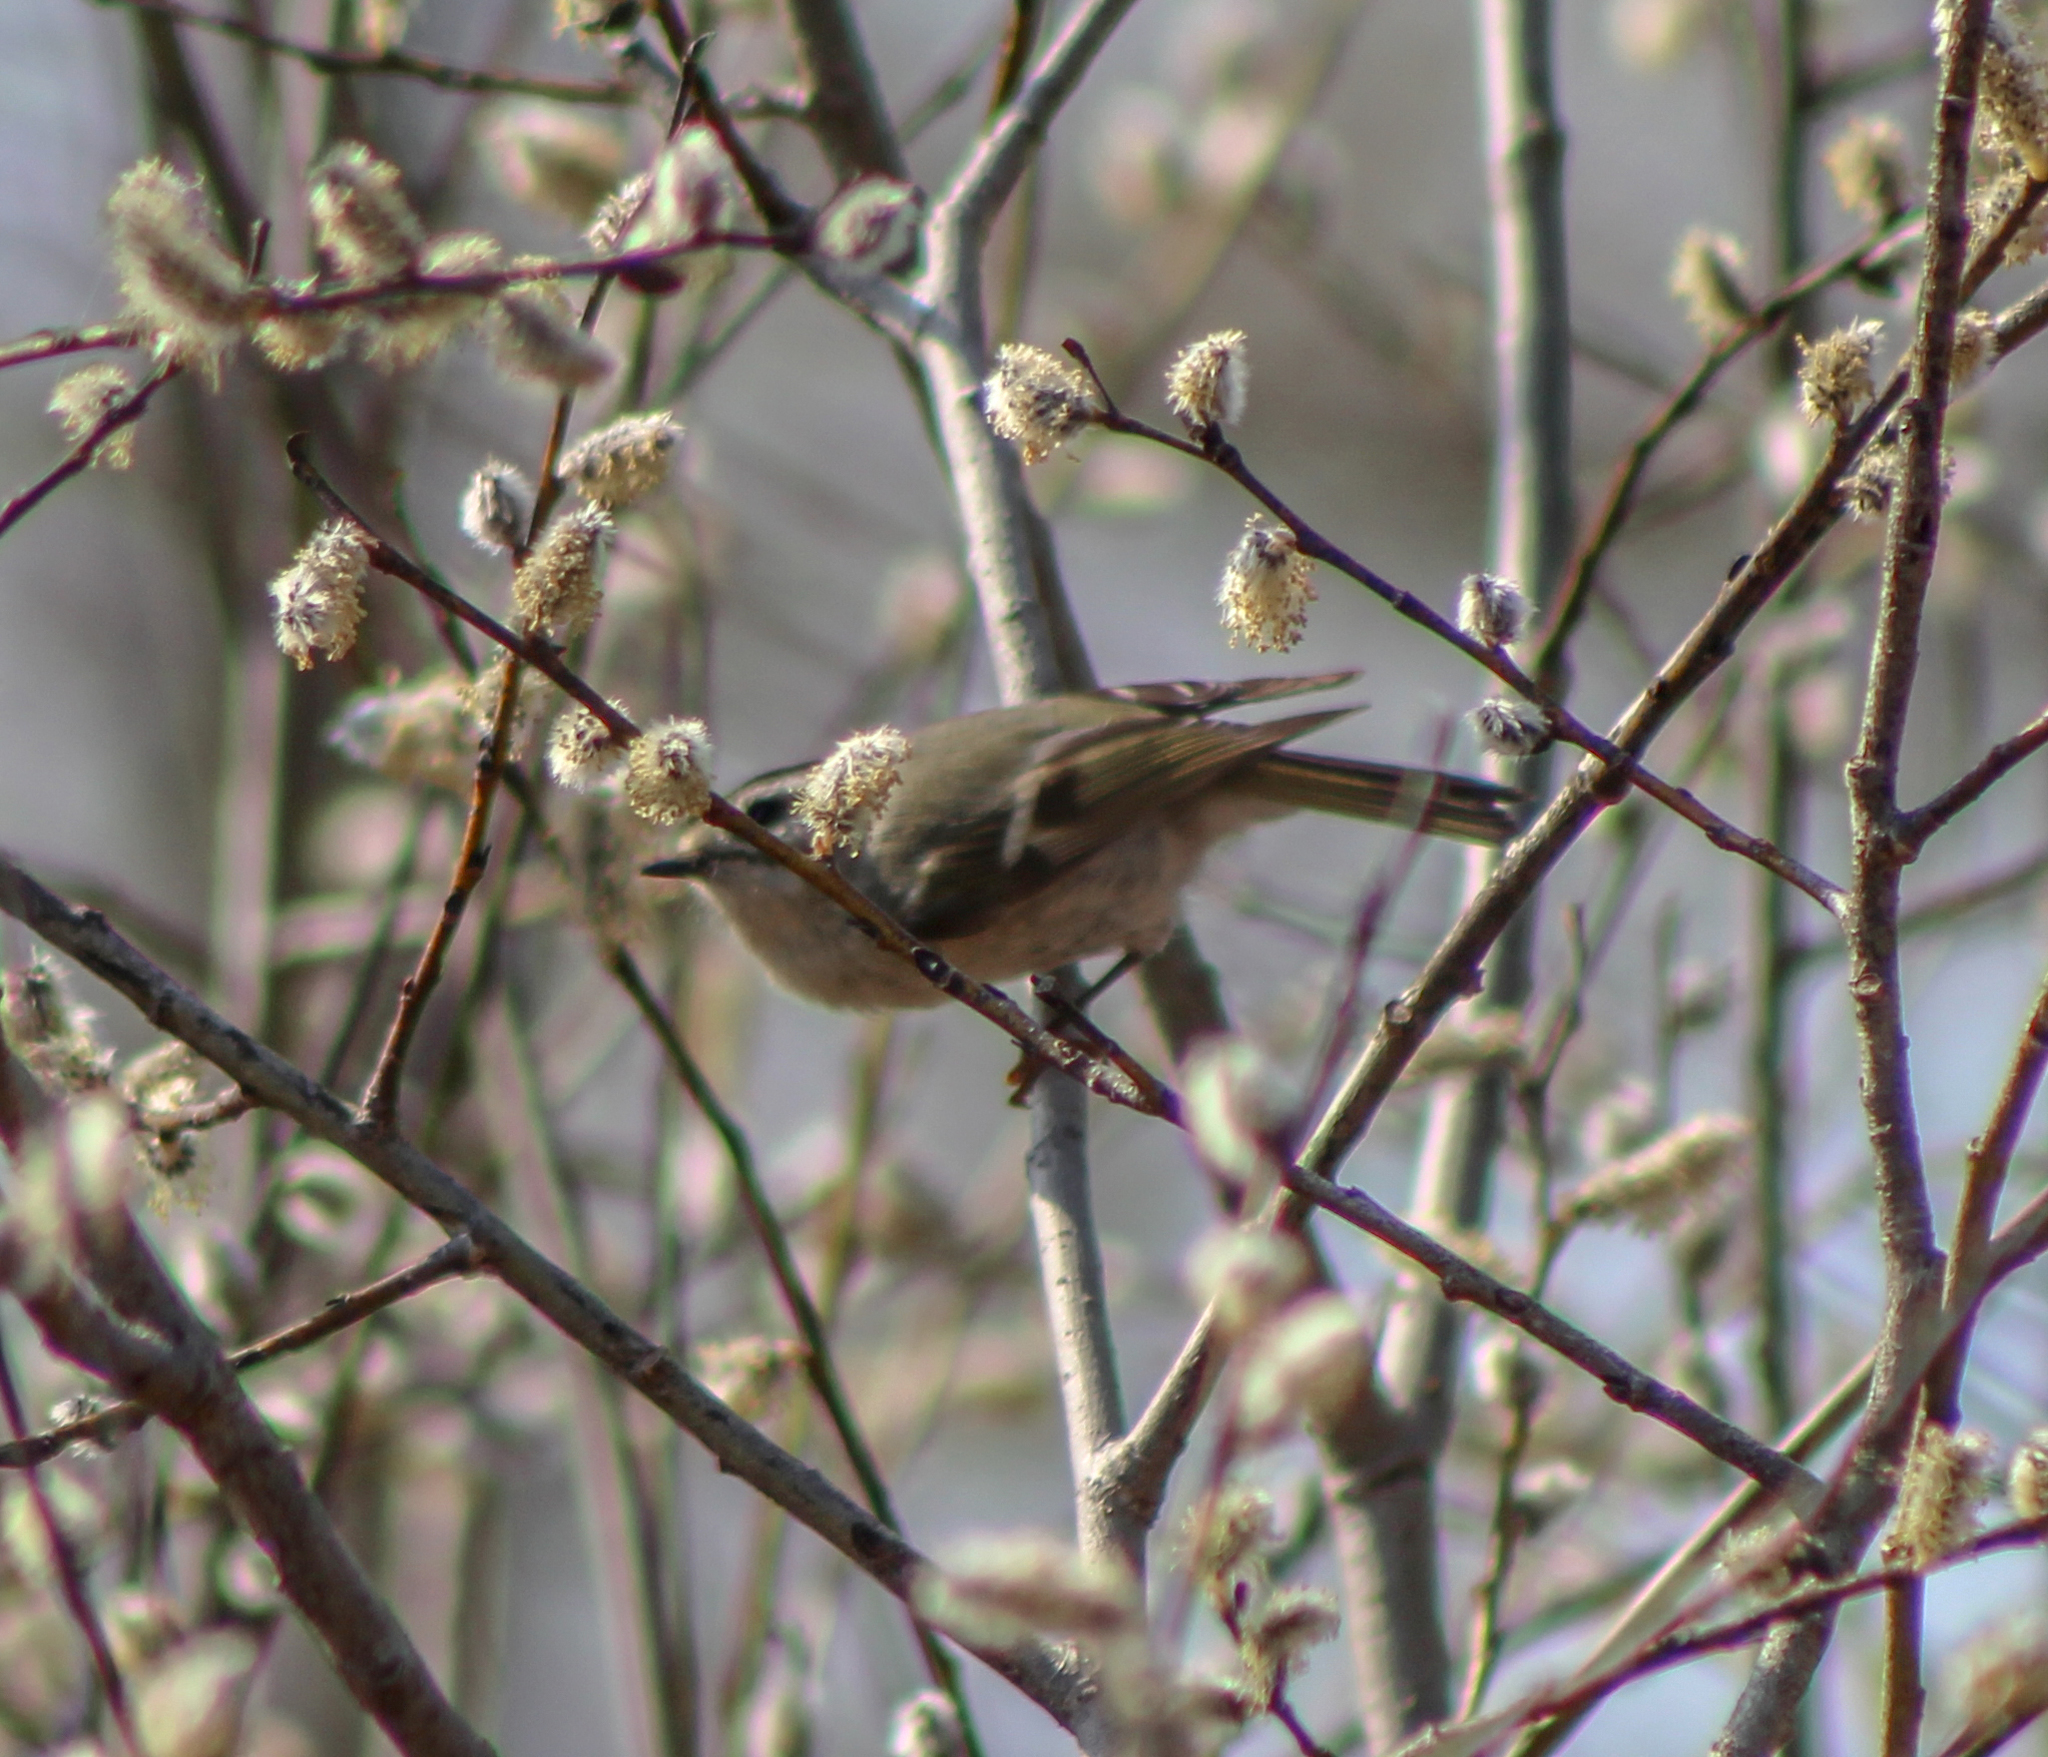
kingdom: Animalia
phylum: Chordata
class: Aves
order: Passeriformes
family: Regulidae
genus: Regulus
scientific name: Regulus satrapa
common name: Golden-crowned kinglet
